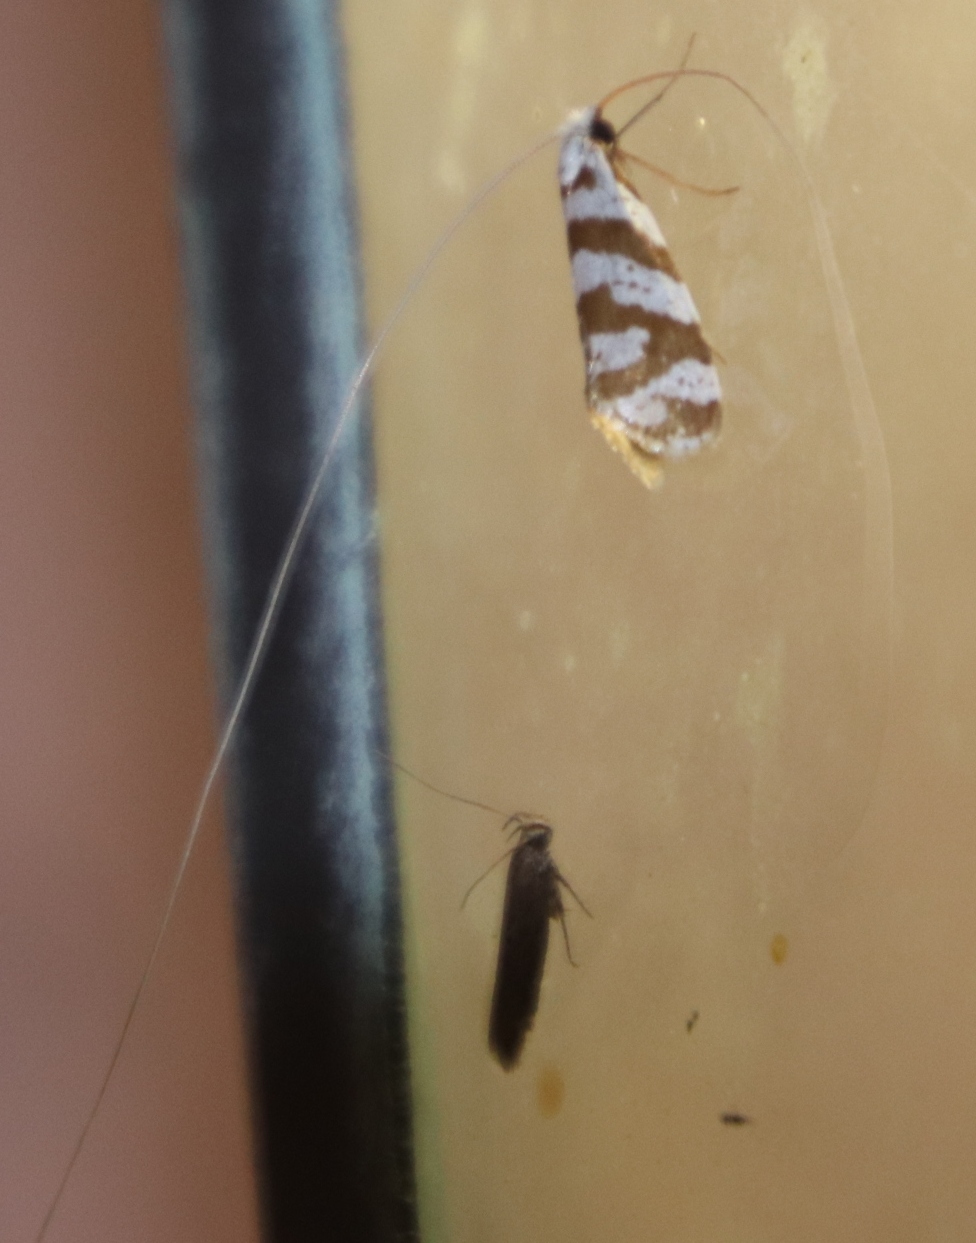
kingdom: Animalia
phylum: Arthropoda
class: Insecta
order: Lepidoptera
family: Adelidae
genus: Ceromitia
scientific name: Ceromitia wahlbergi
